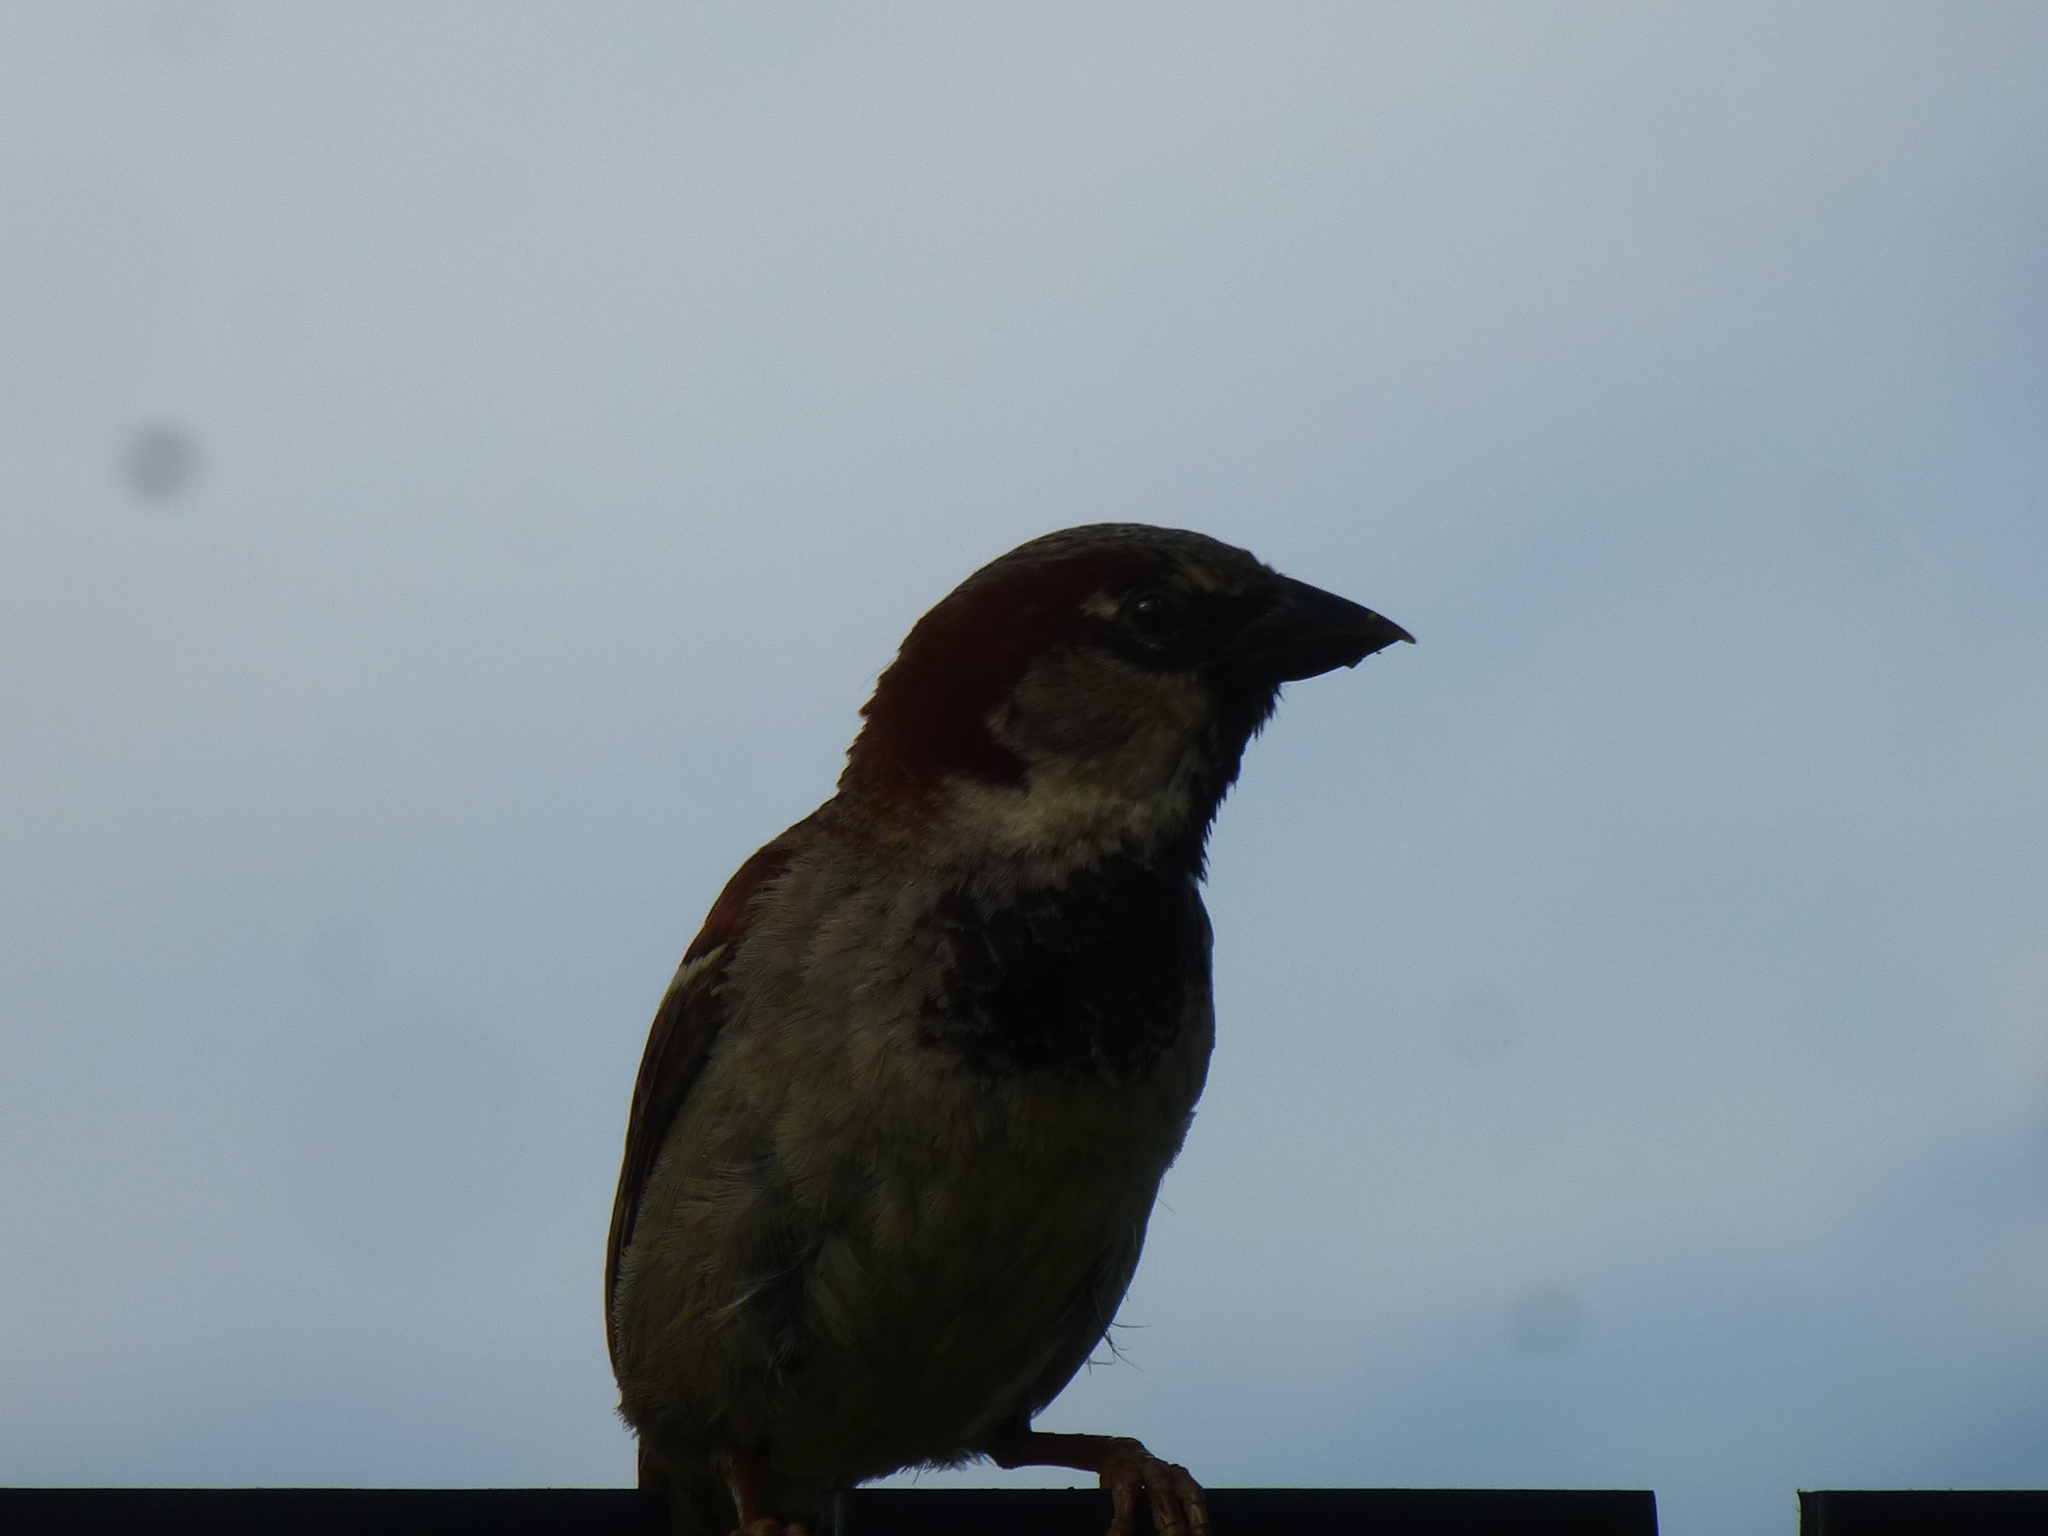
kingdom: Animalia
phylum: Chordata
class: Aves
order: Passeriformes
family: Passeridae
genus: Passer
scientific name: Passer domesticus
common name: House sparrow
